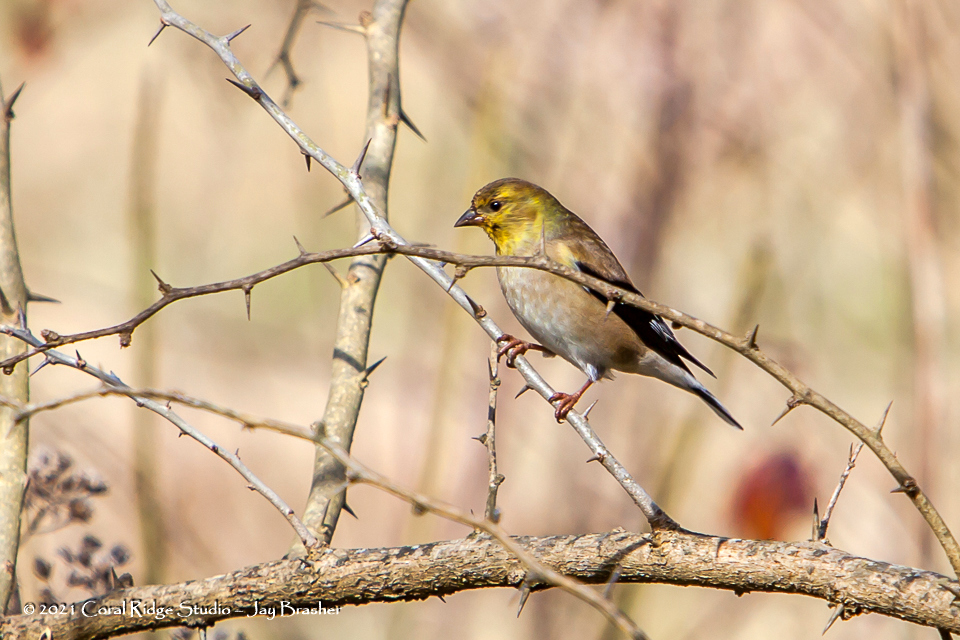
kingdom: Animalia
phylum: Chordata
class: Aves
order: Passeriformes
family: Fringillidae
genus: Spinus
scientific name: Spinus tristis
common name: American goldfinch
